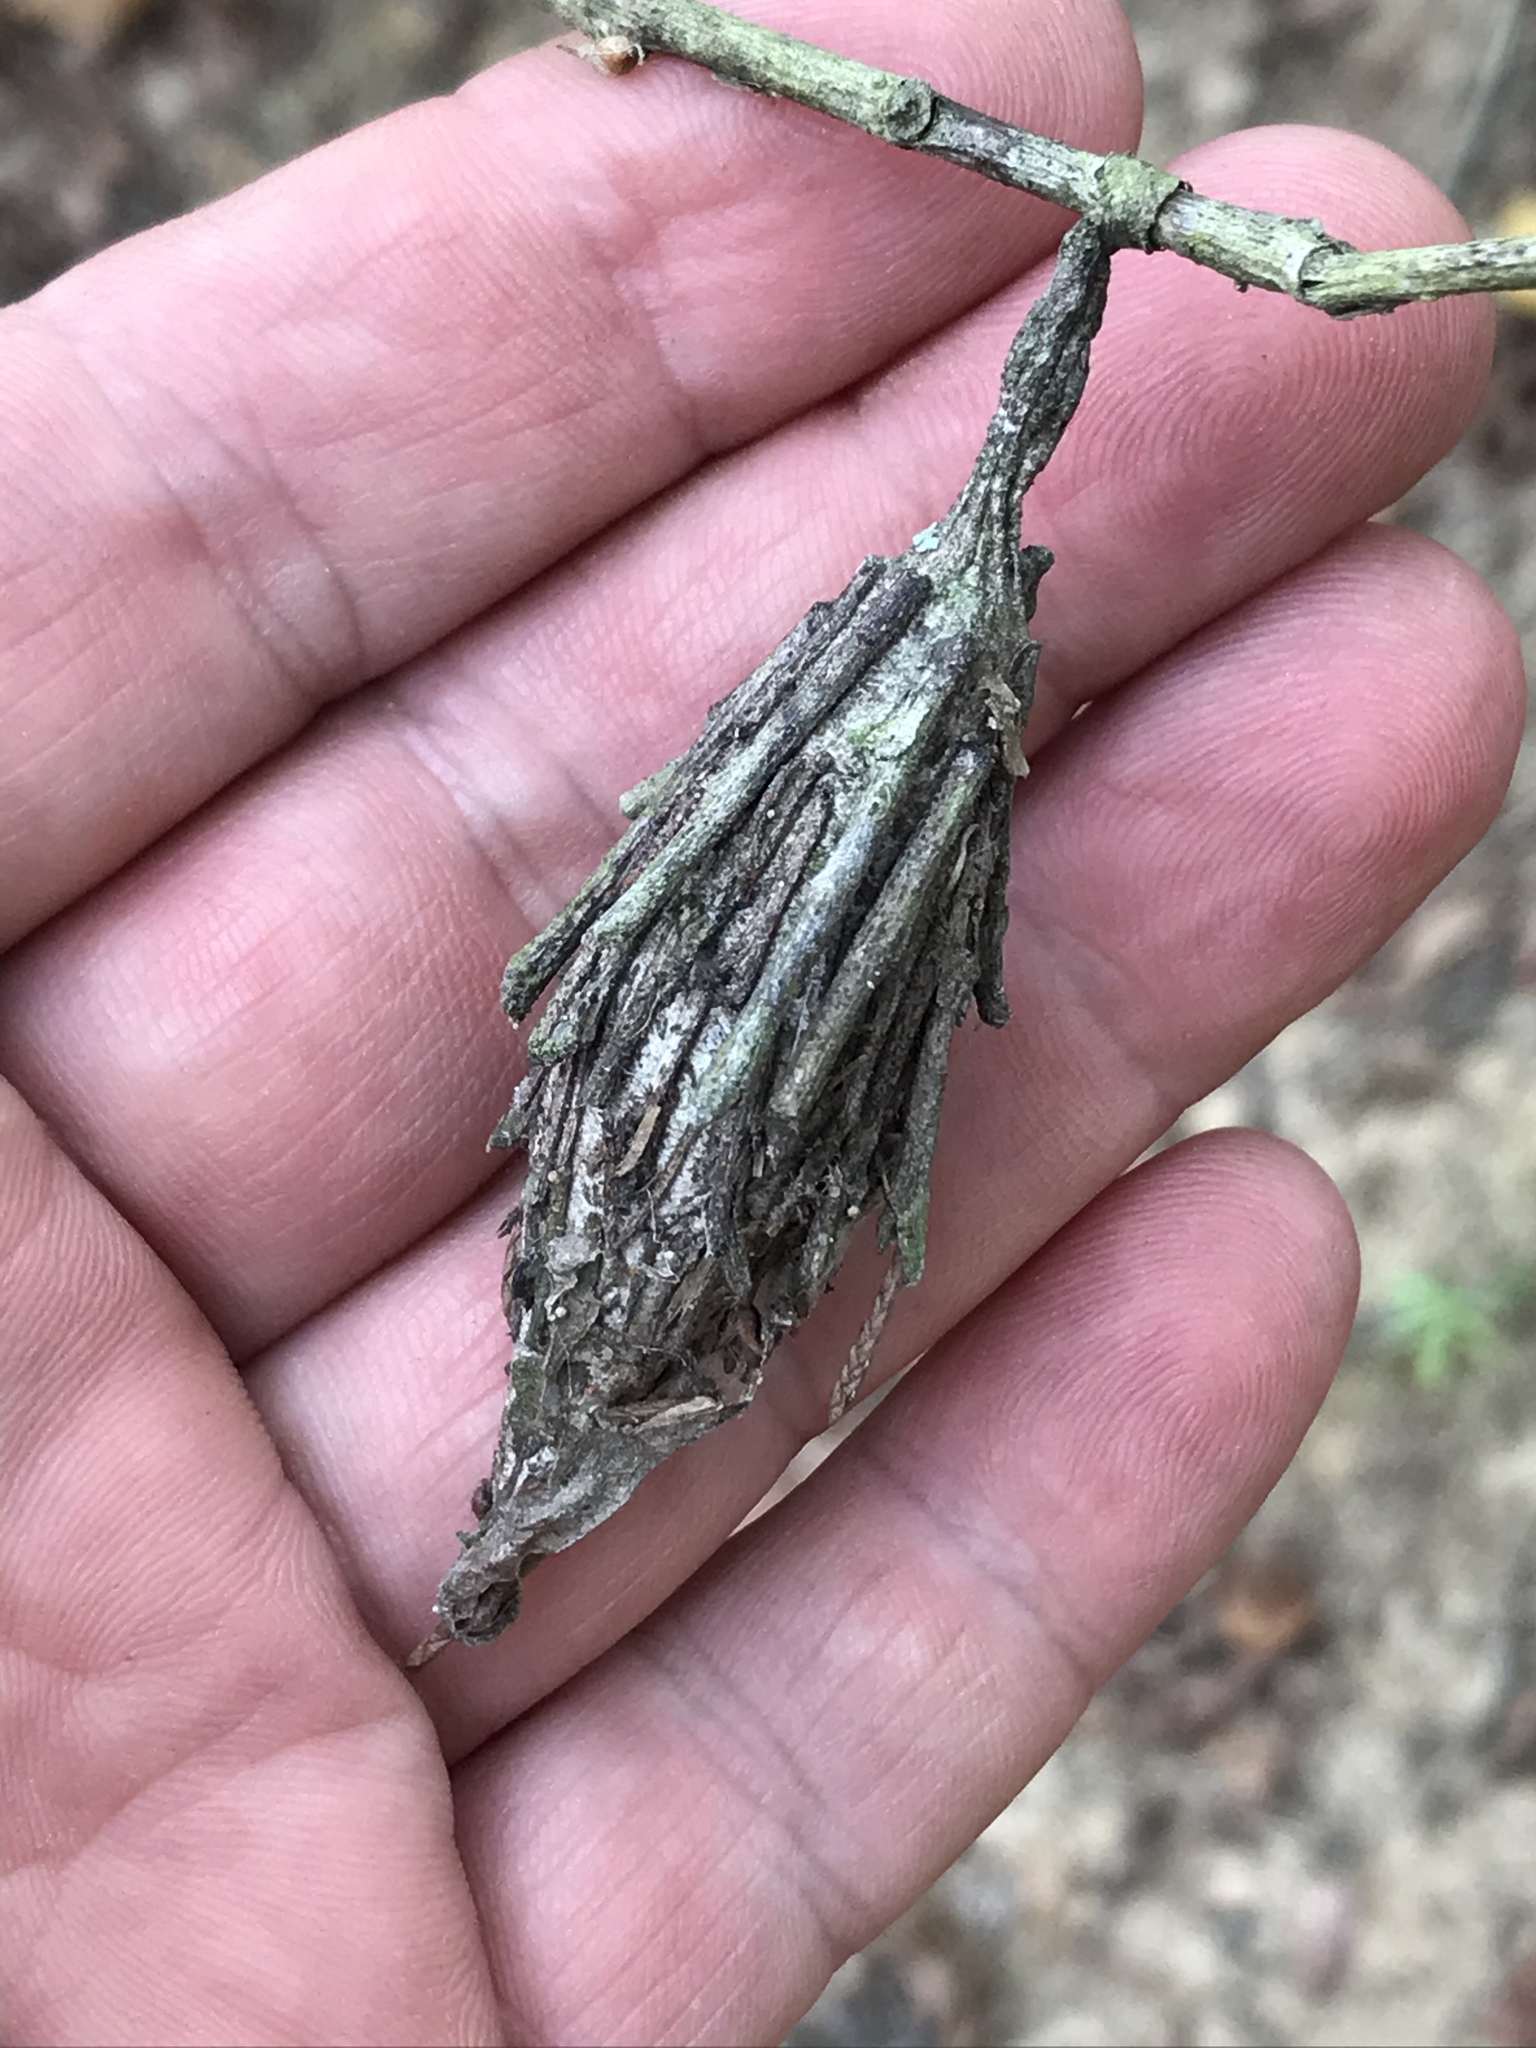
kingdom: Animalia
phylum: Arthropoda
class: Insecta
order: Lepidoptera
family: Psychidae
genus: Thyridopteryx
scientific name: Thyridopteryx ephemeraeformis
